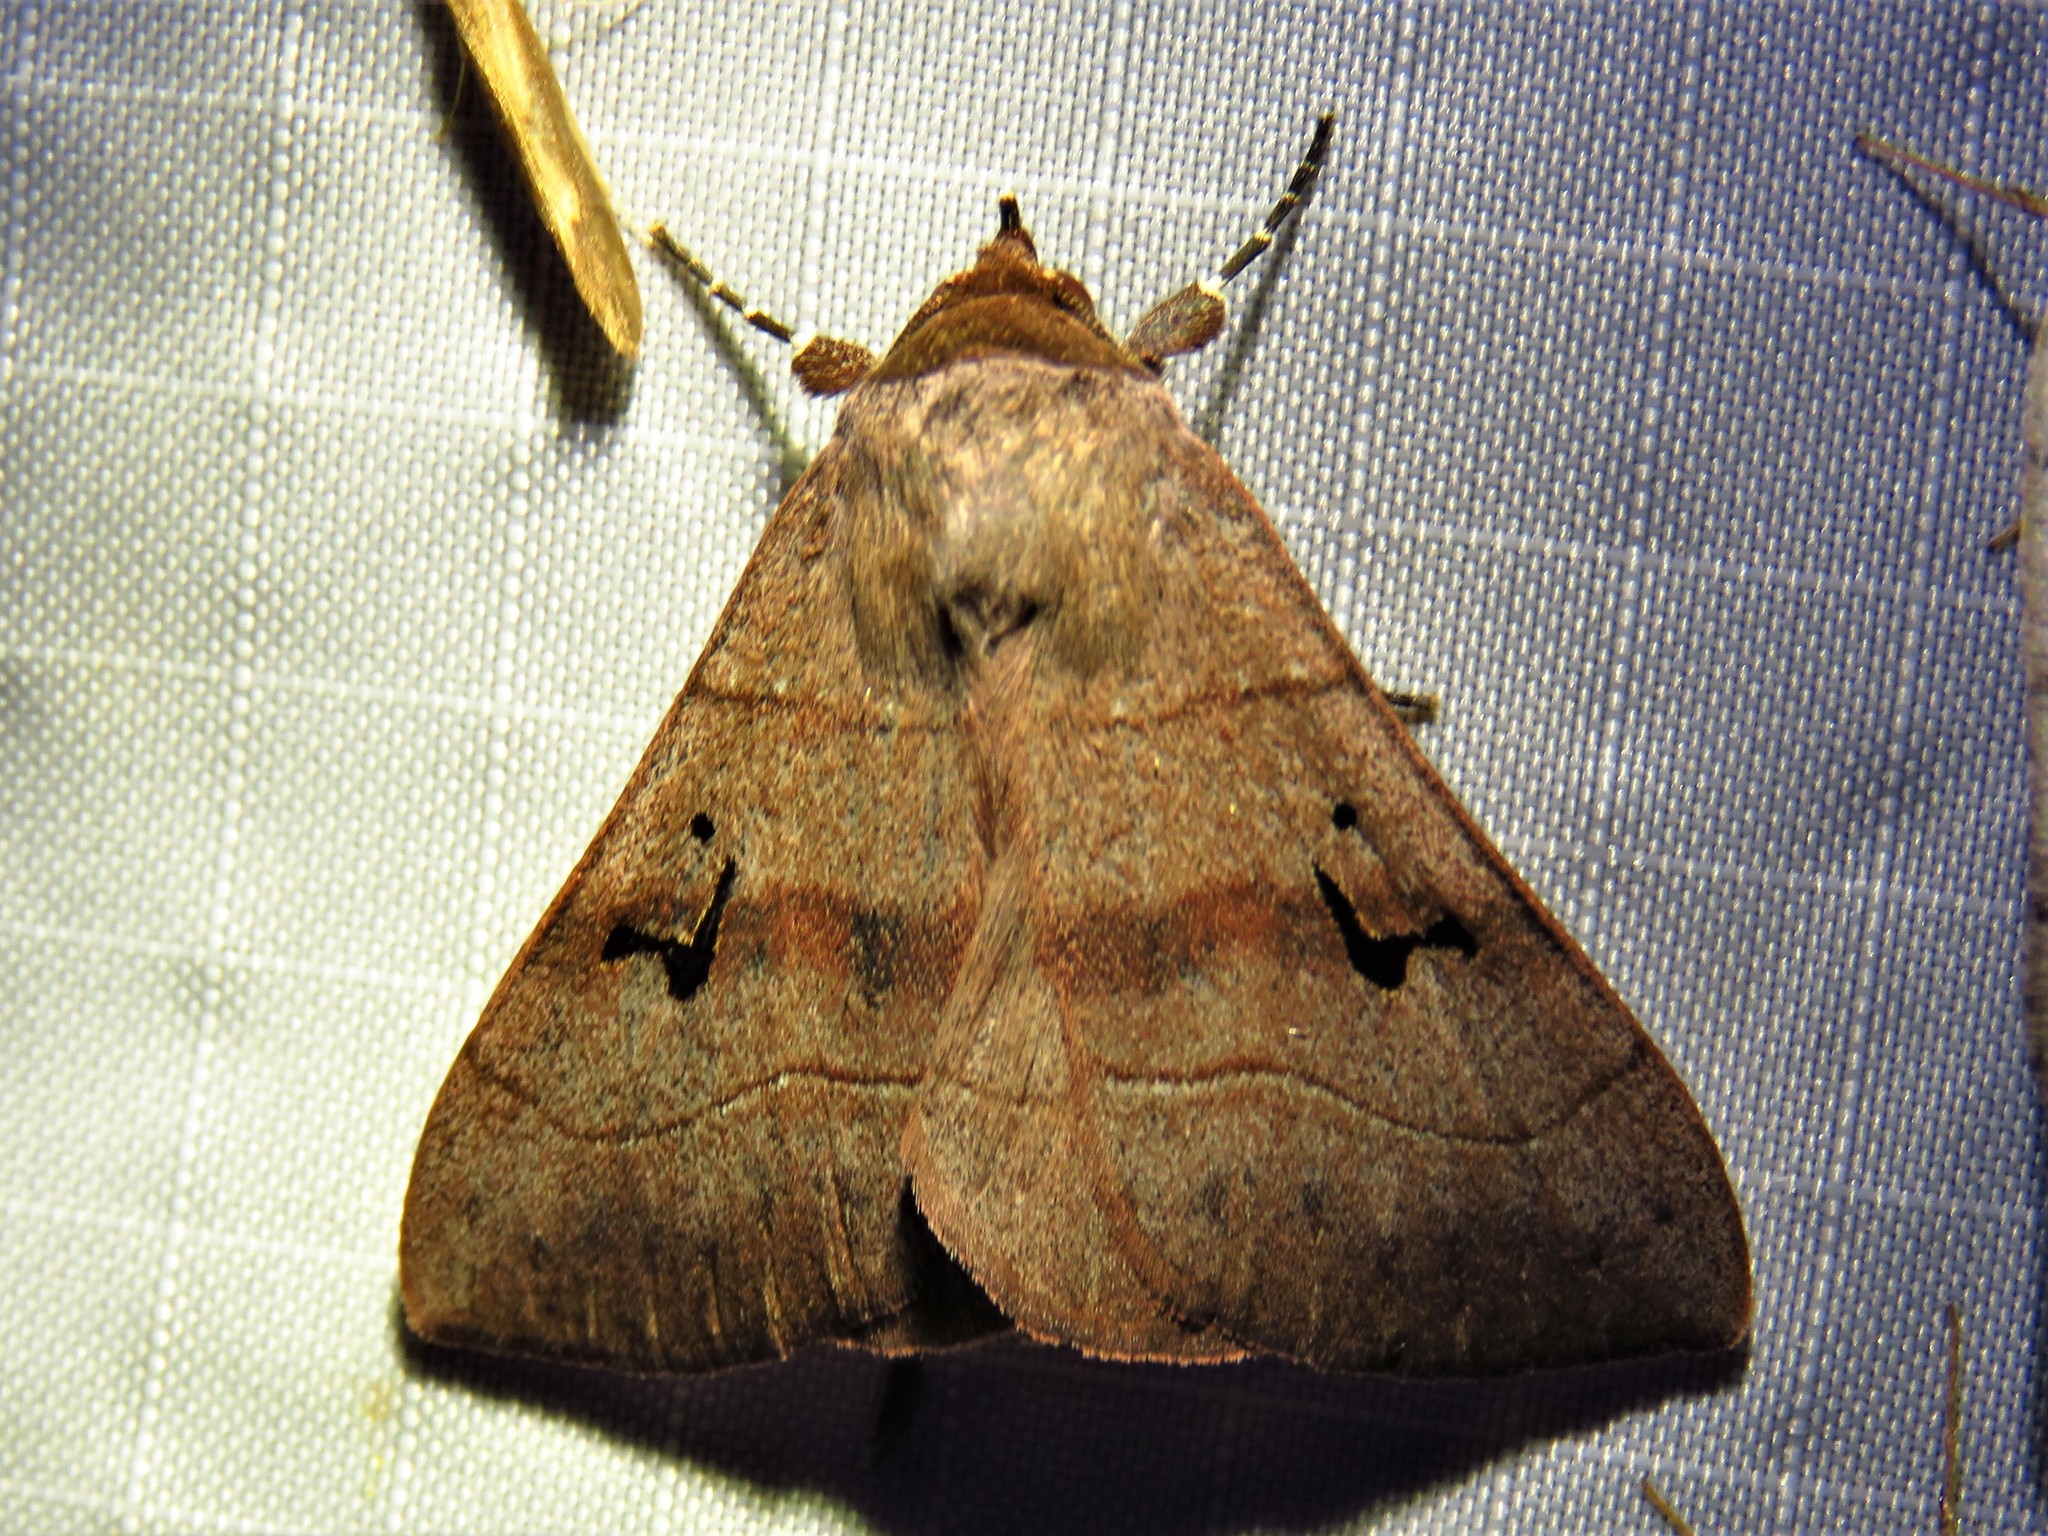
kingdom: Animalia
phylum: Arthropoda
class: Insecta
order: Lepidoptera
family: Erebidae
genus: Panopoda
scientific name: Panopoda carneicosta
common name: Brown panopoda moth
